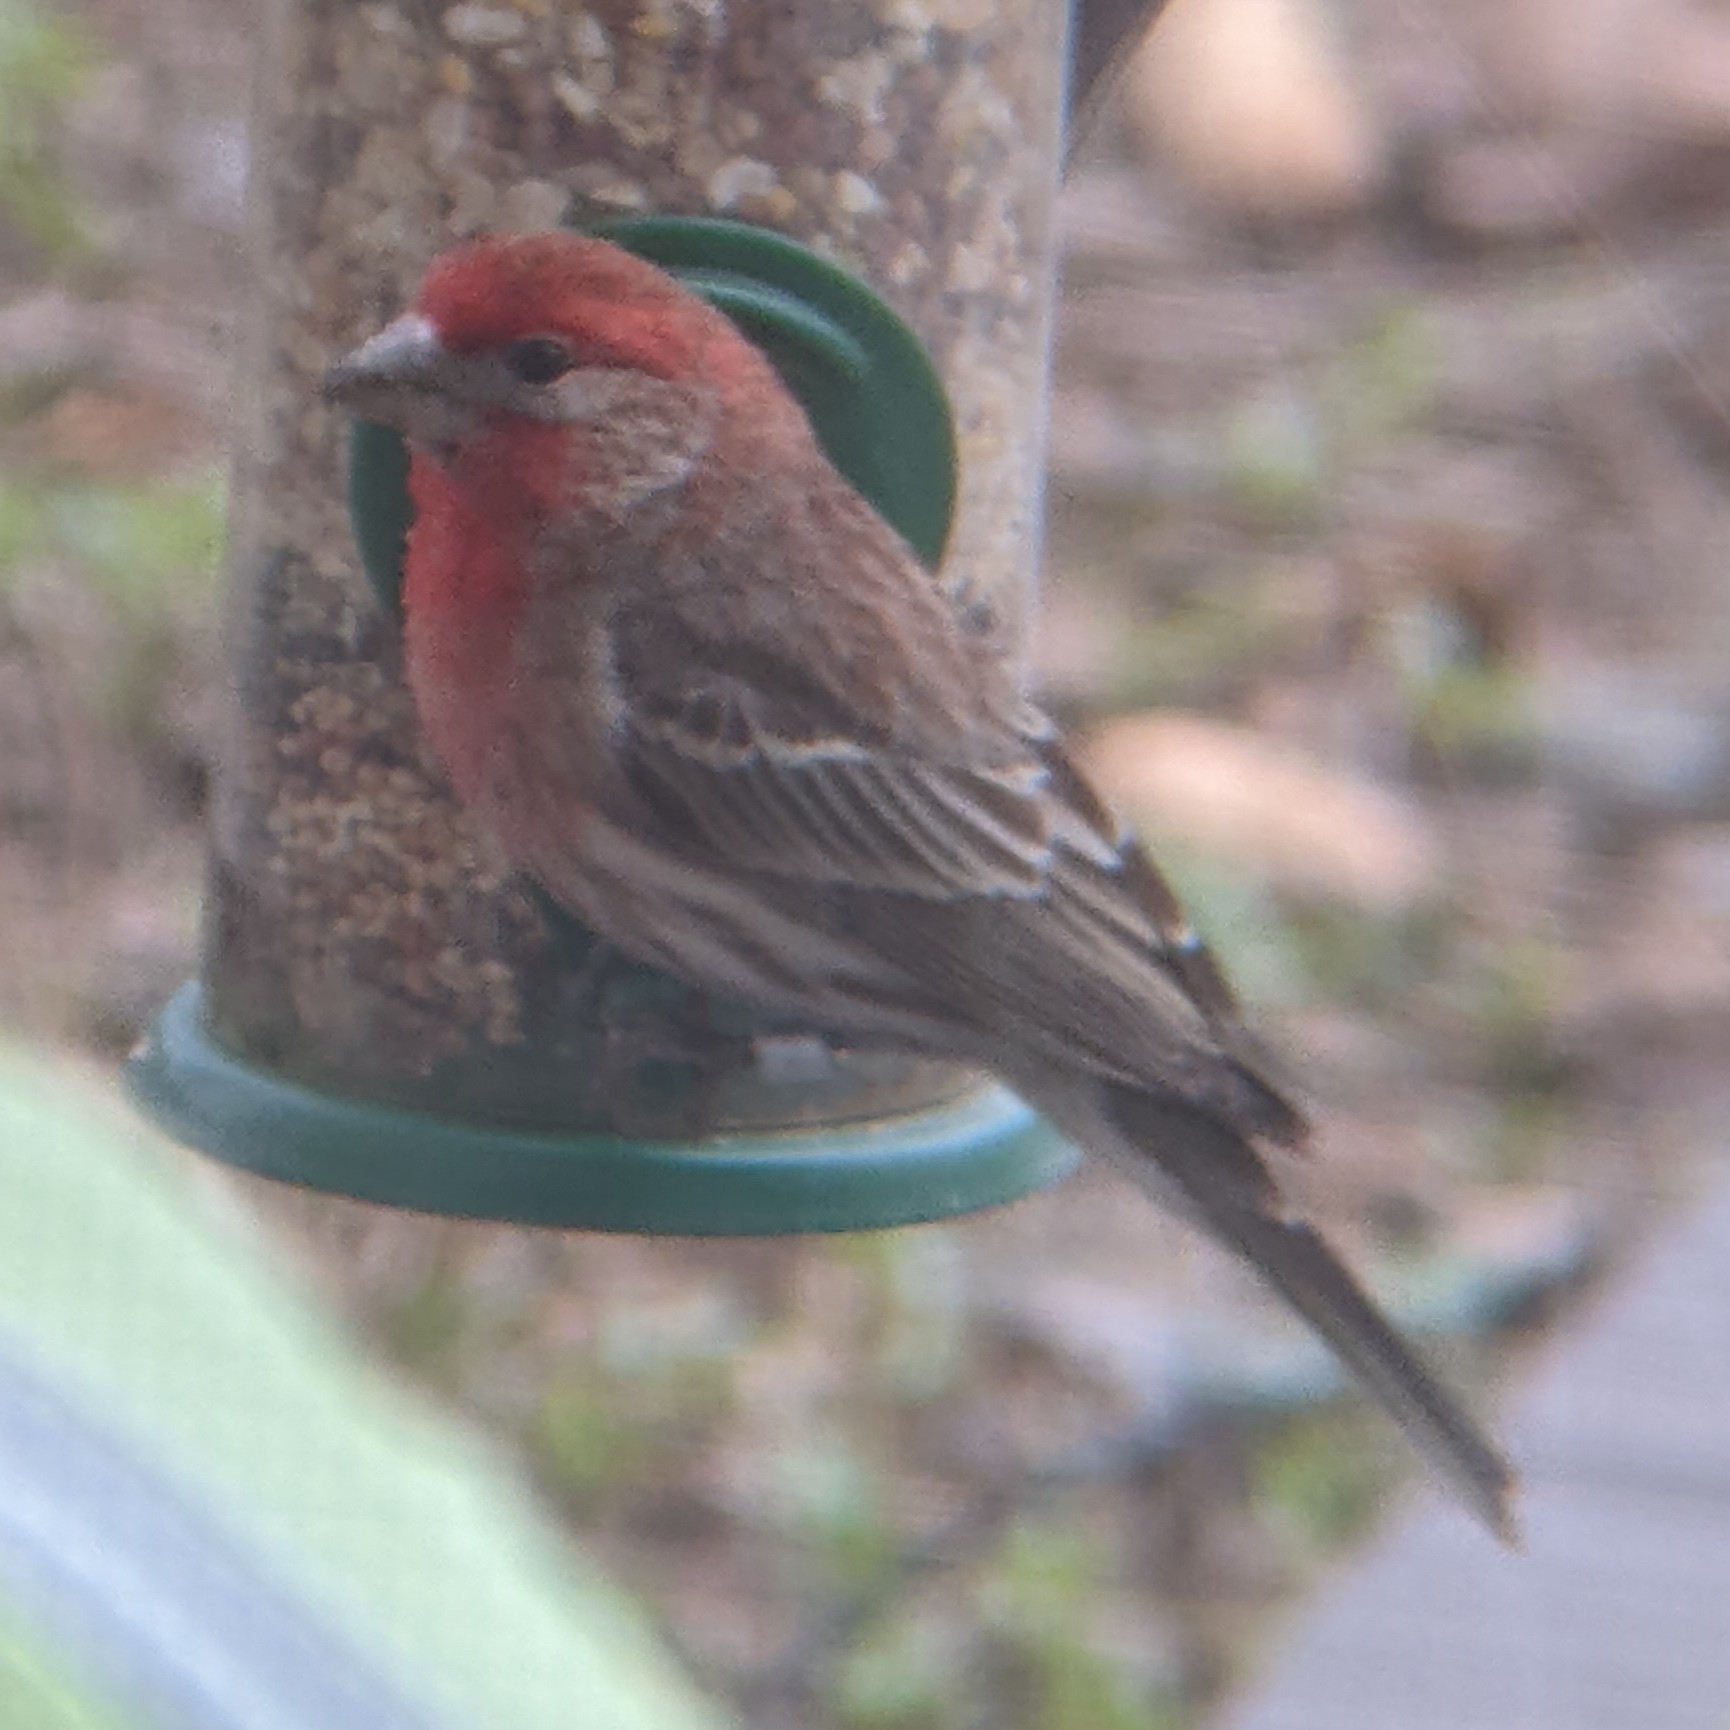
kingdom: Animalia
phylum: Chordata
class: Aves
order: Passeriformes
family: Fringillidae
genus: Haemorhous
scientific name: Haemorhous mexicanus
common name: House finch
